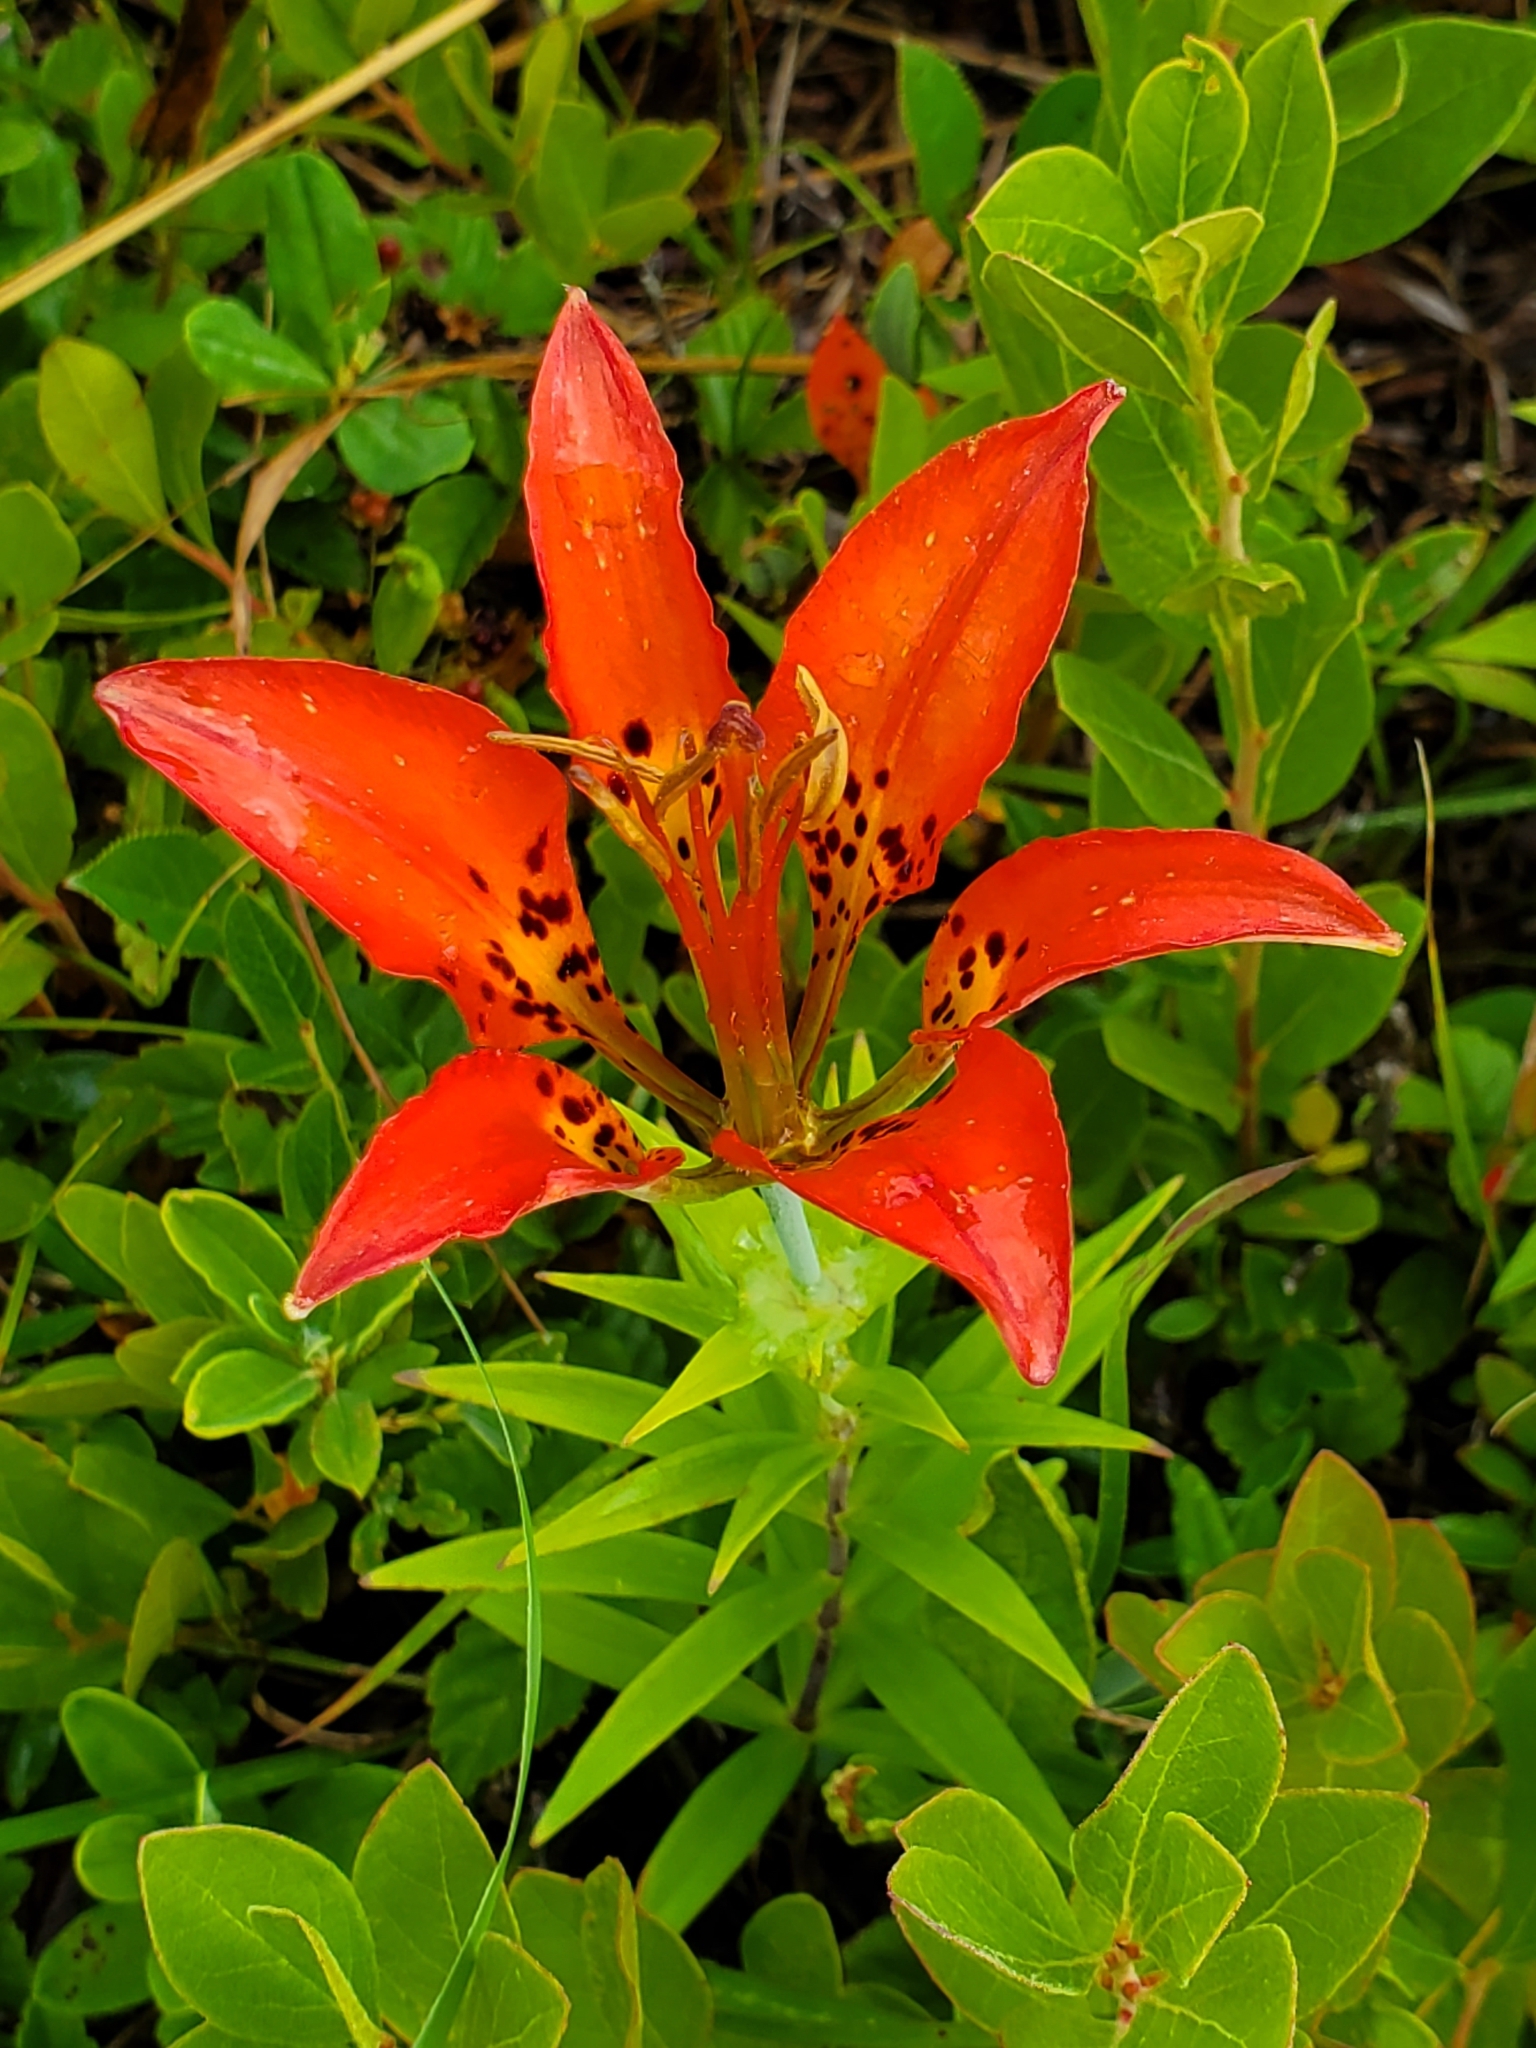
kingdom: Plantae
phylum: Tracheophyta
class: Liliopsida
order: Liliales
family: Liliaceae
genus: Lilium
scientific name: Lilium philadelphicum
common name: Red lily
